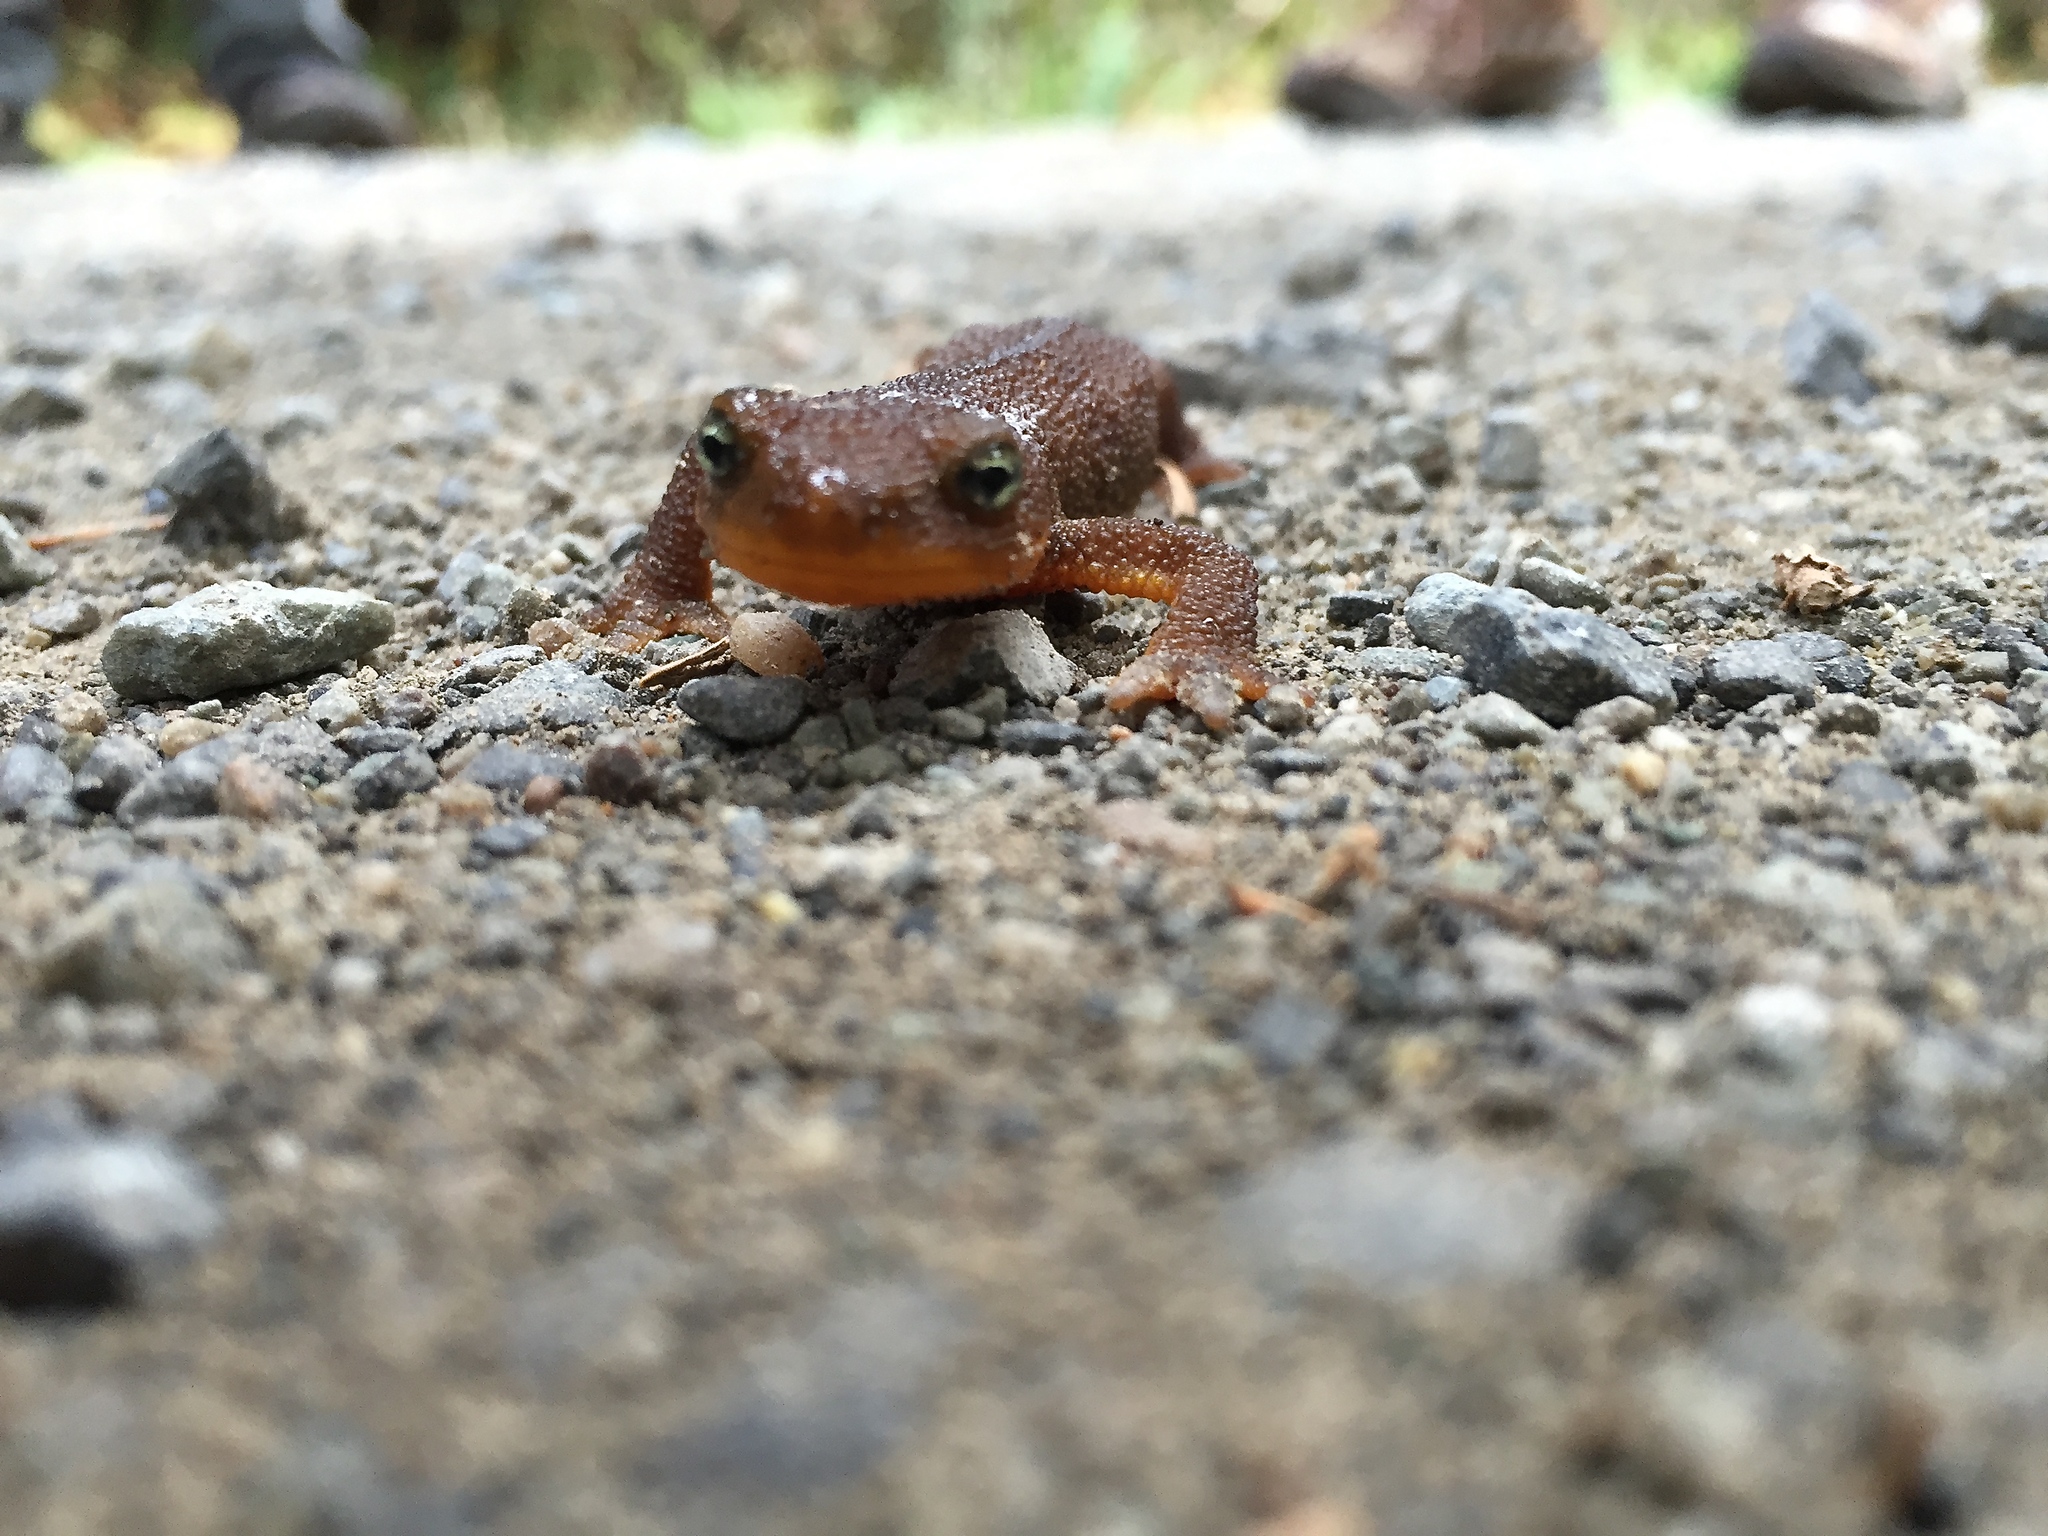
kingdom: Animalia
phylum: Chordata
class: Amphibia
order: Caudata
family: Salamandridae
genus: Taricha
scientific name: Taricha granulosa
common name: Roughskin newt
